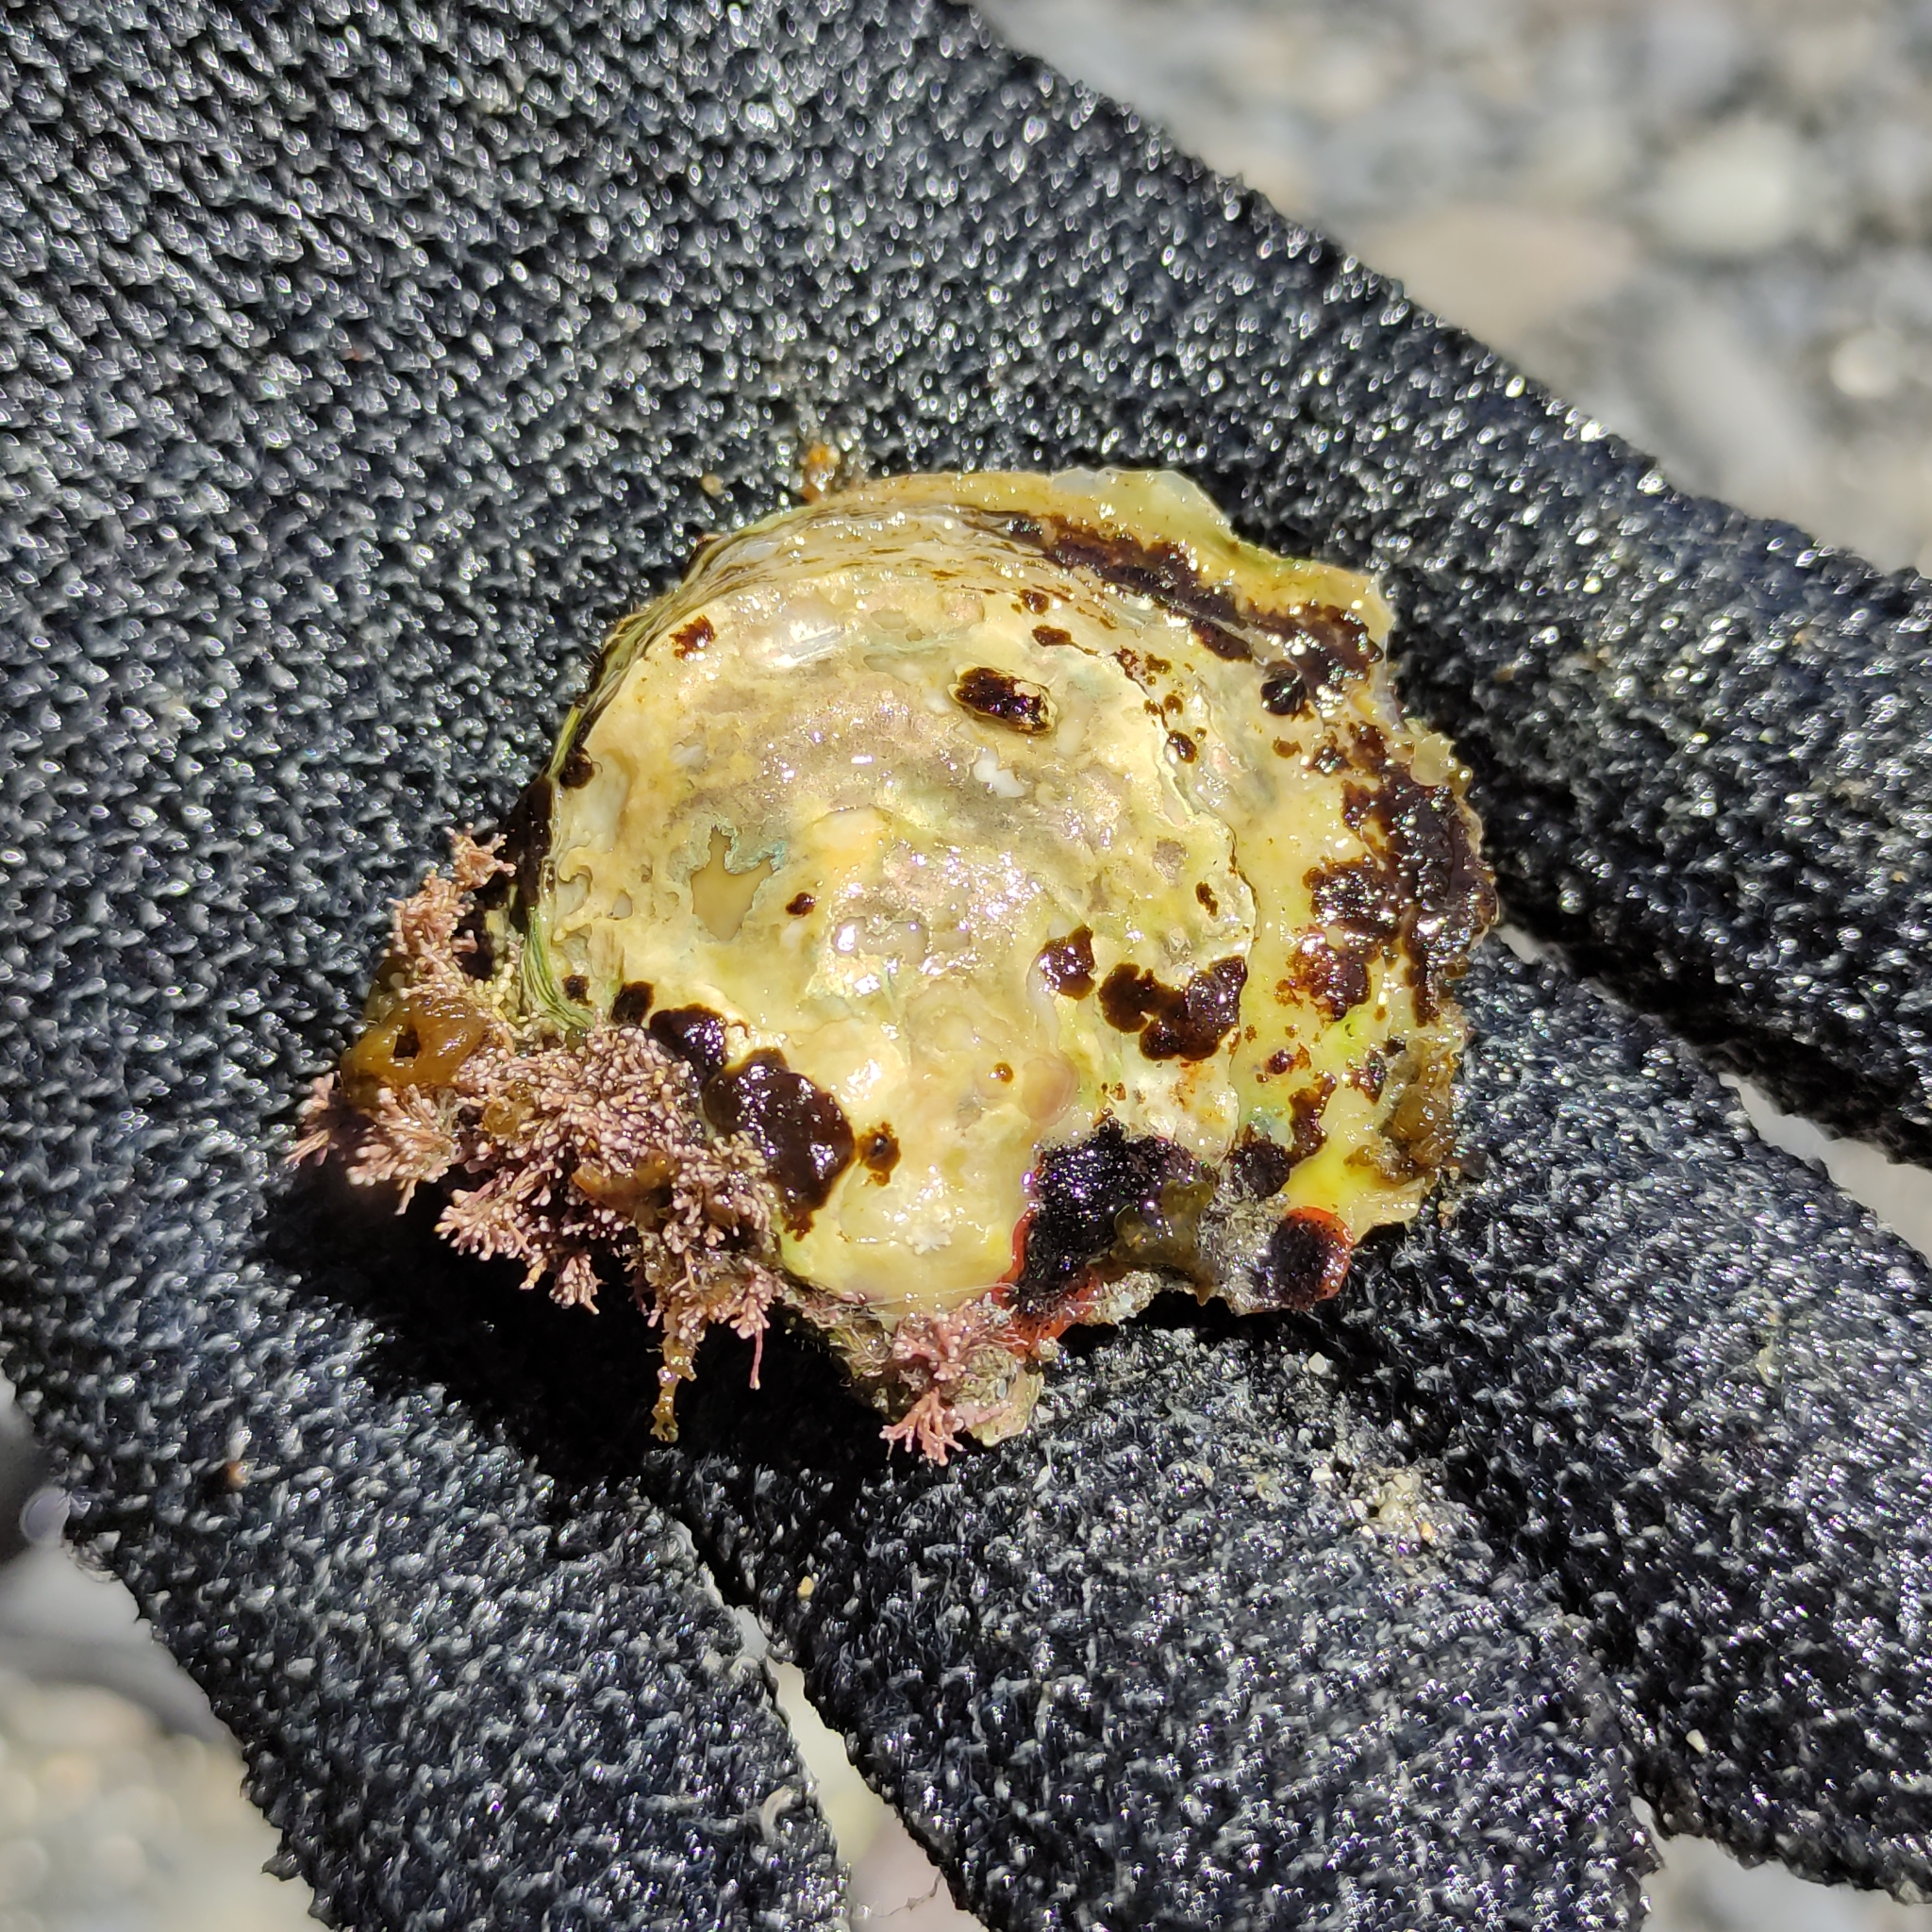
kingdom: Animalia
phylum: Mollusca
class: Bivalvia
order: Ostreida
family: Ostreidae
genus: Ostrea
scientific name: Ostrea chilensis
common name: Chilean oyster
